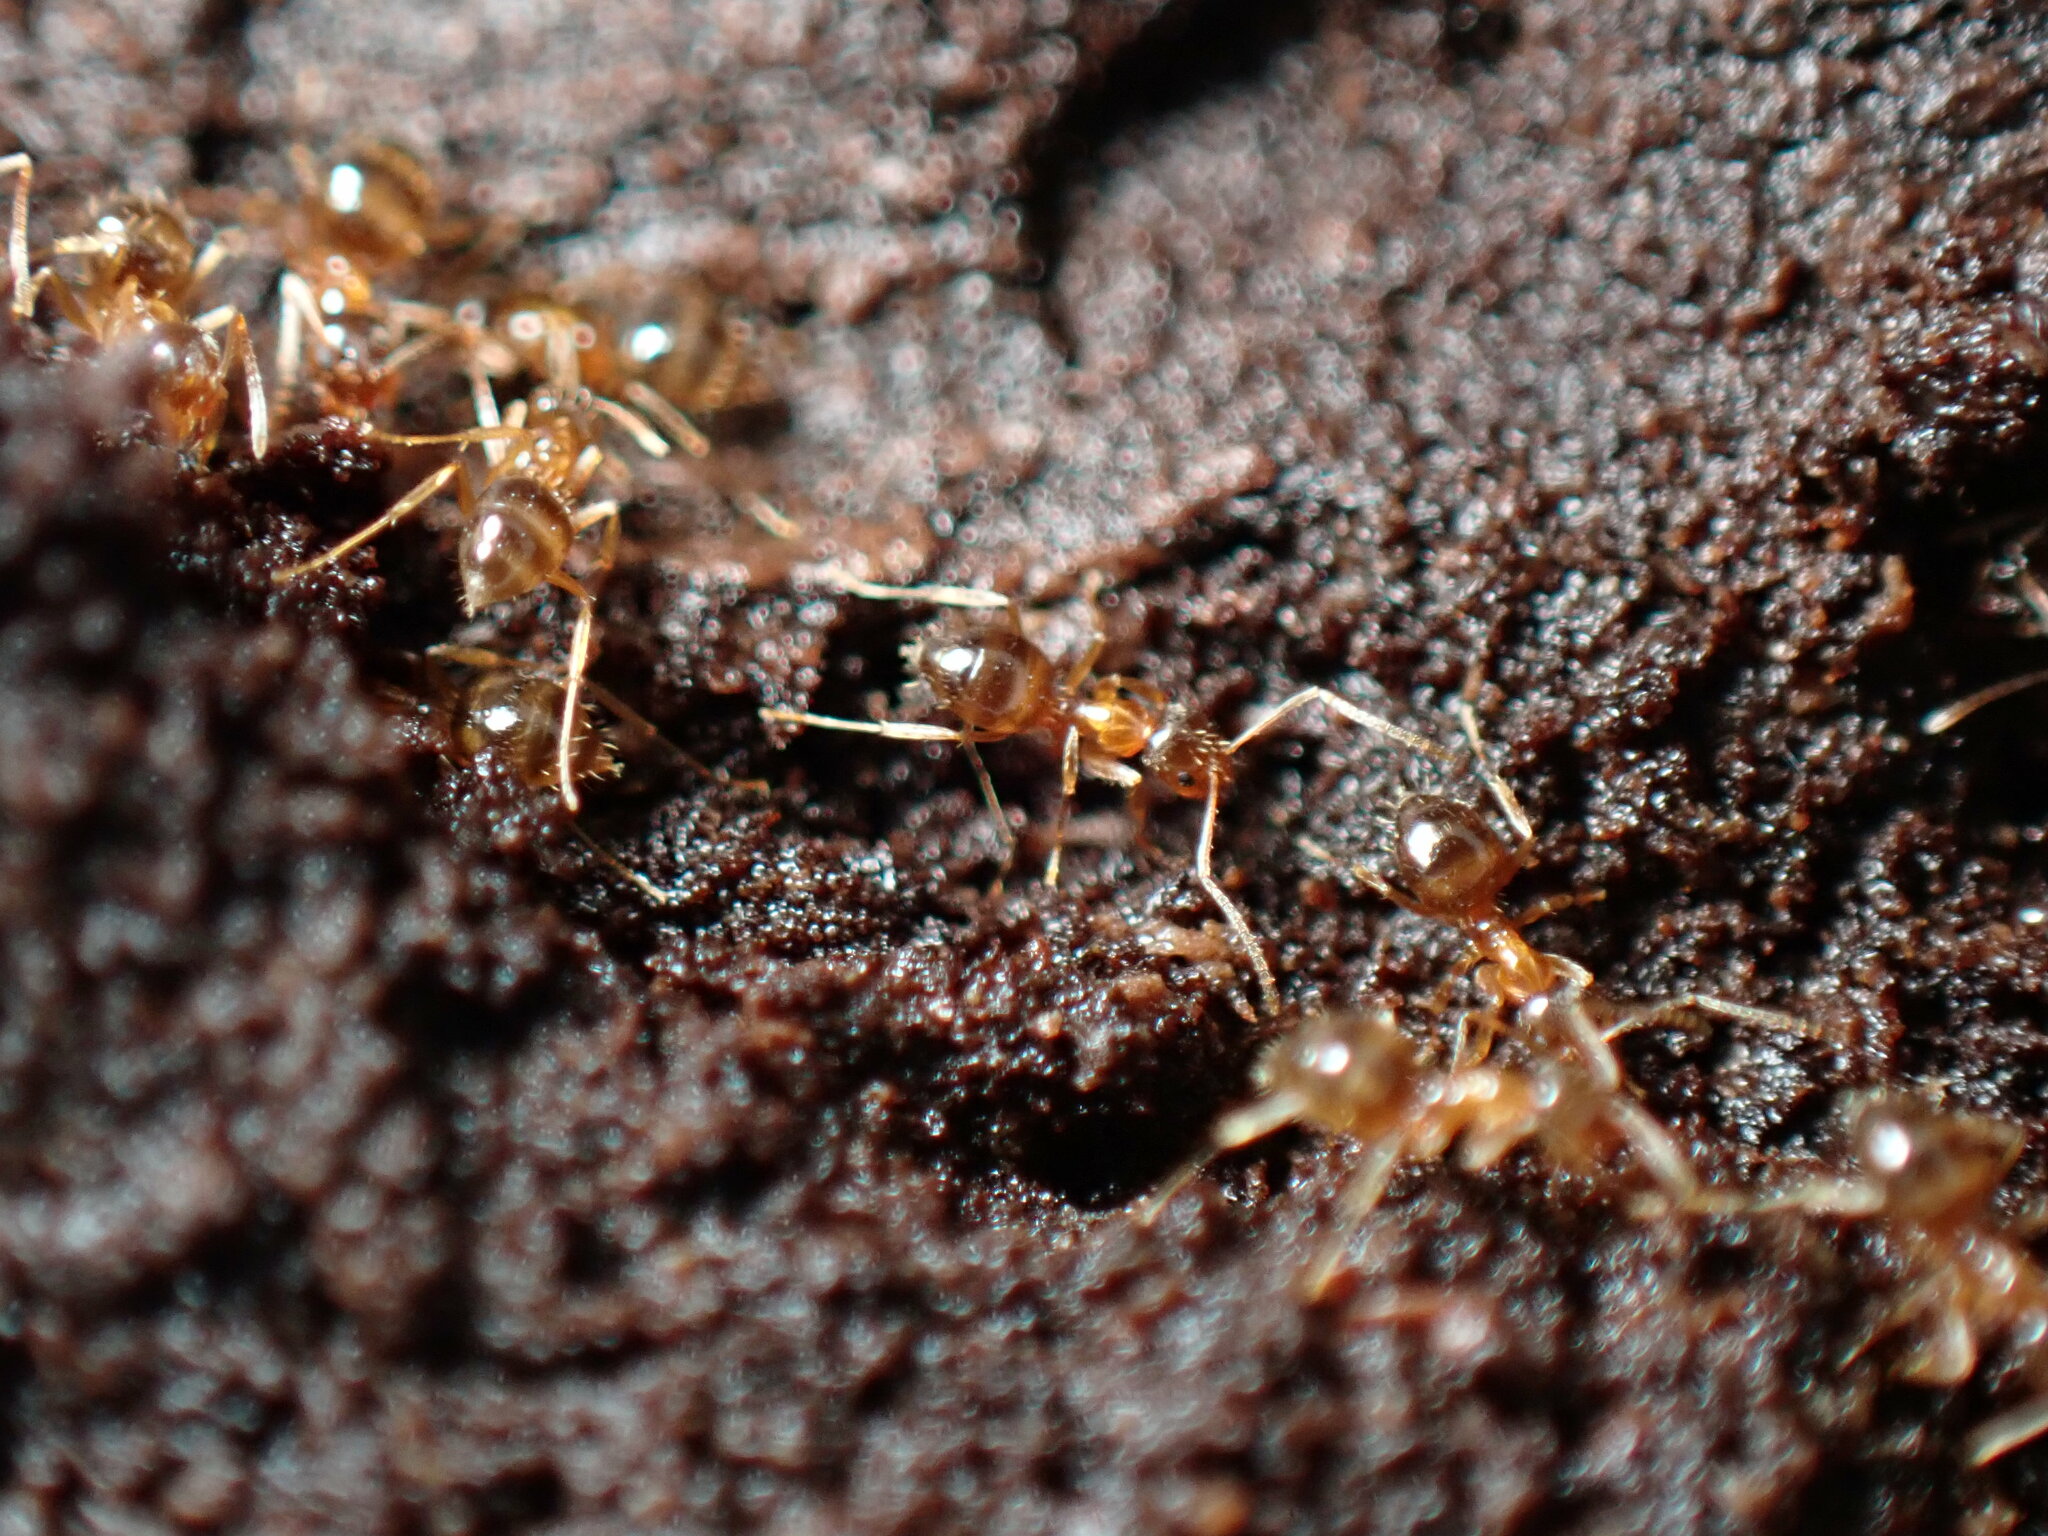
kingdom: Animalia
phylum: Arthropoda
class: Insecta
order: Hymenoptera
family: Formicidae
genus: Paratrechina
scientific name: Paratrechina flavipes
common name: Eastern asian formicine ant
